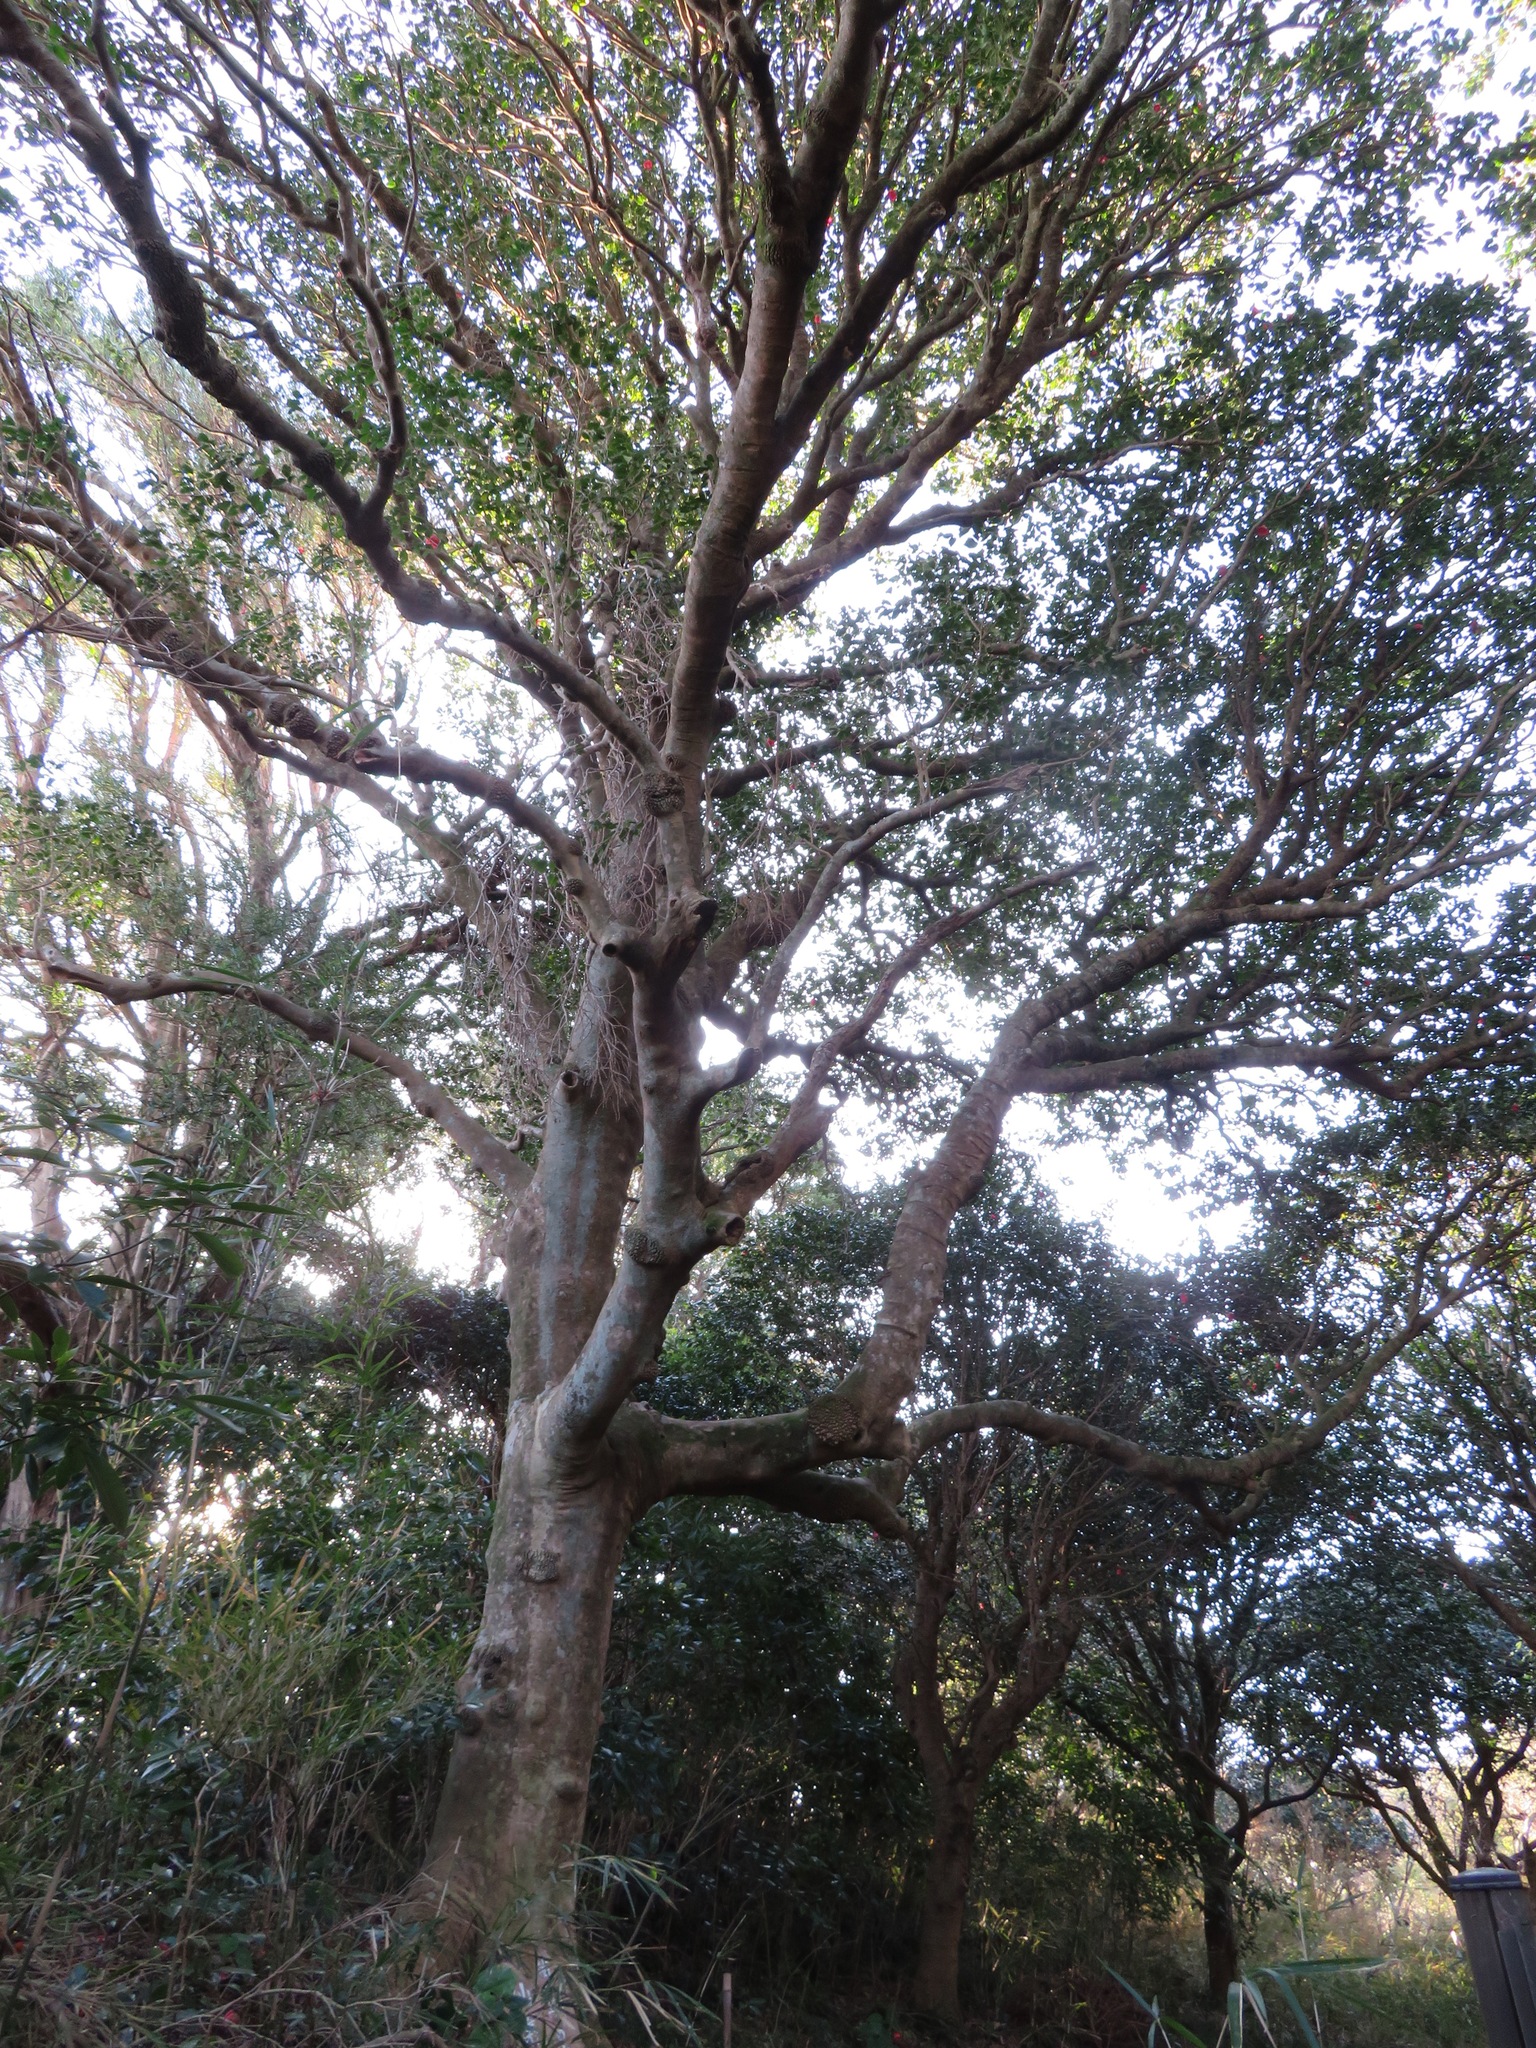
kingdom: Plantae
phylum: Tracheophyta
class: Magnoliopsida
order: Ericales
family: Theaceae
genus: Camellia
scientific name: Camellia japonica
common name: Camellia
